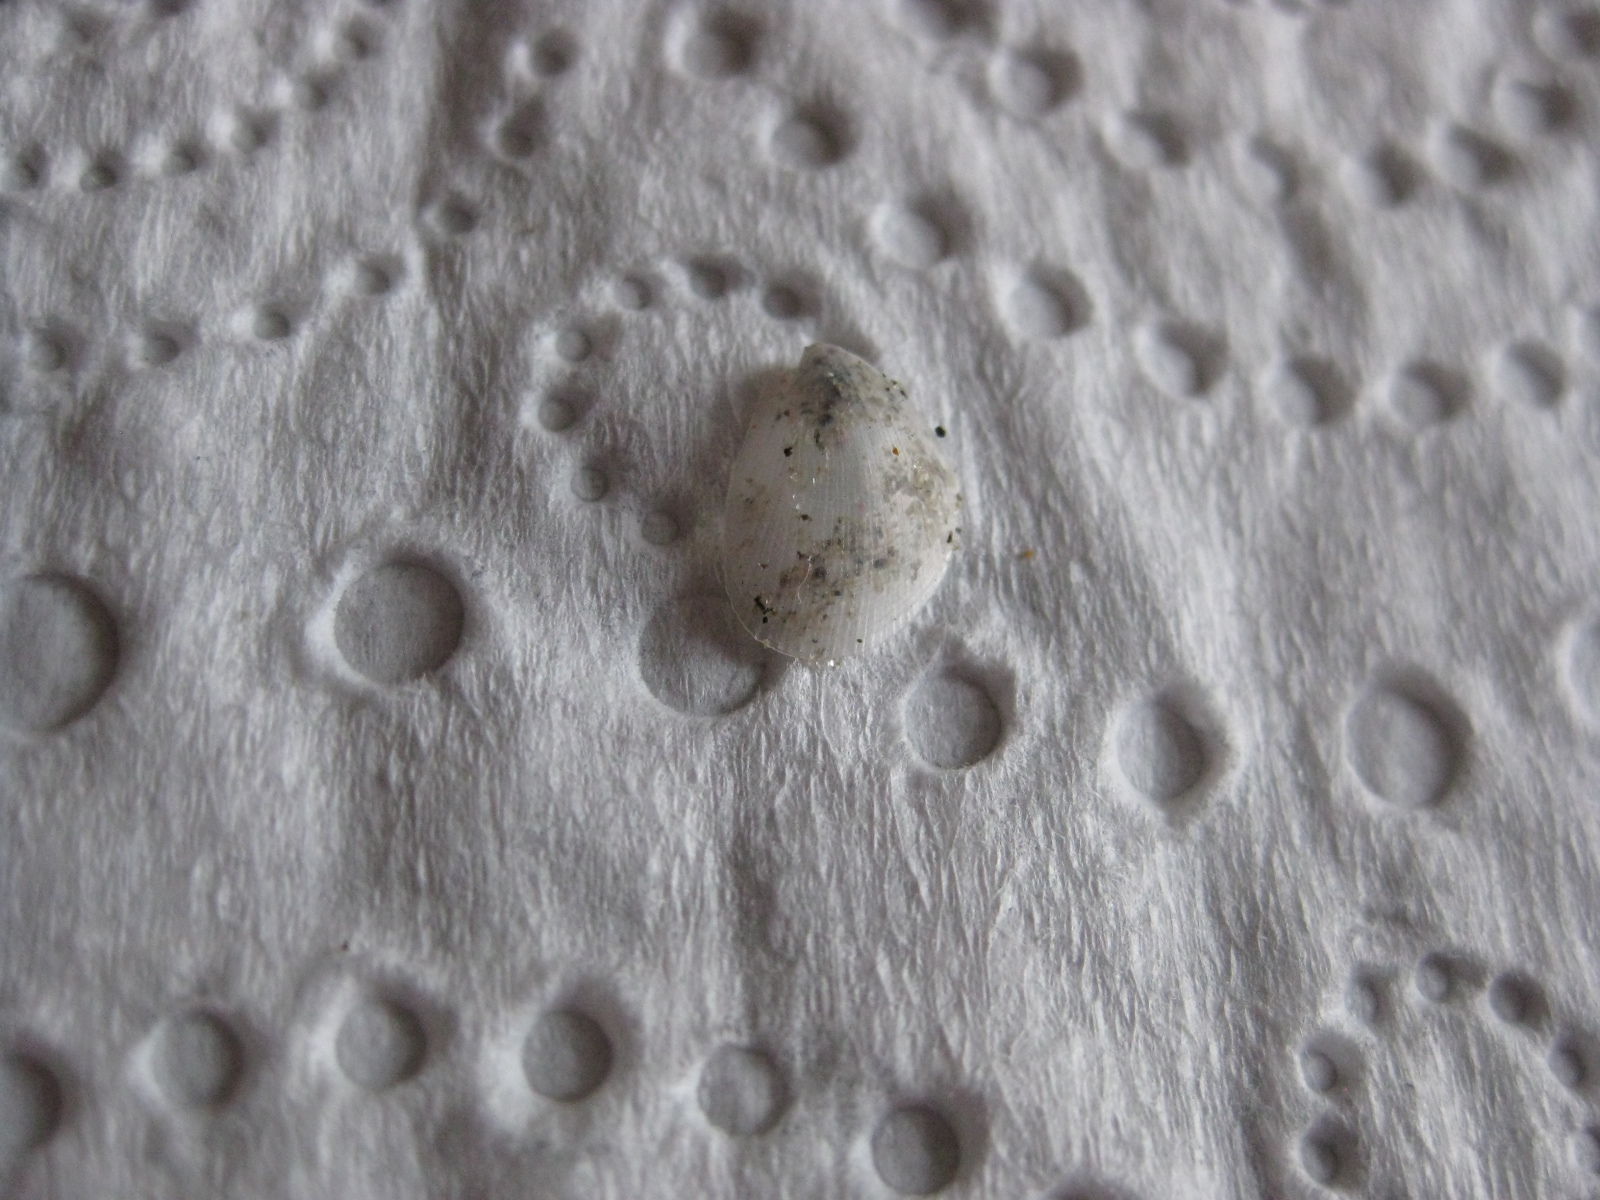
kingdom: Animalia
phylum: Mollusca
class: Bivalvia
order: Limida
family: Limidae
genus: Limaria
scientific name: Limaria orientalis
